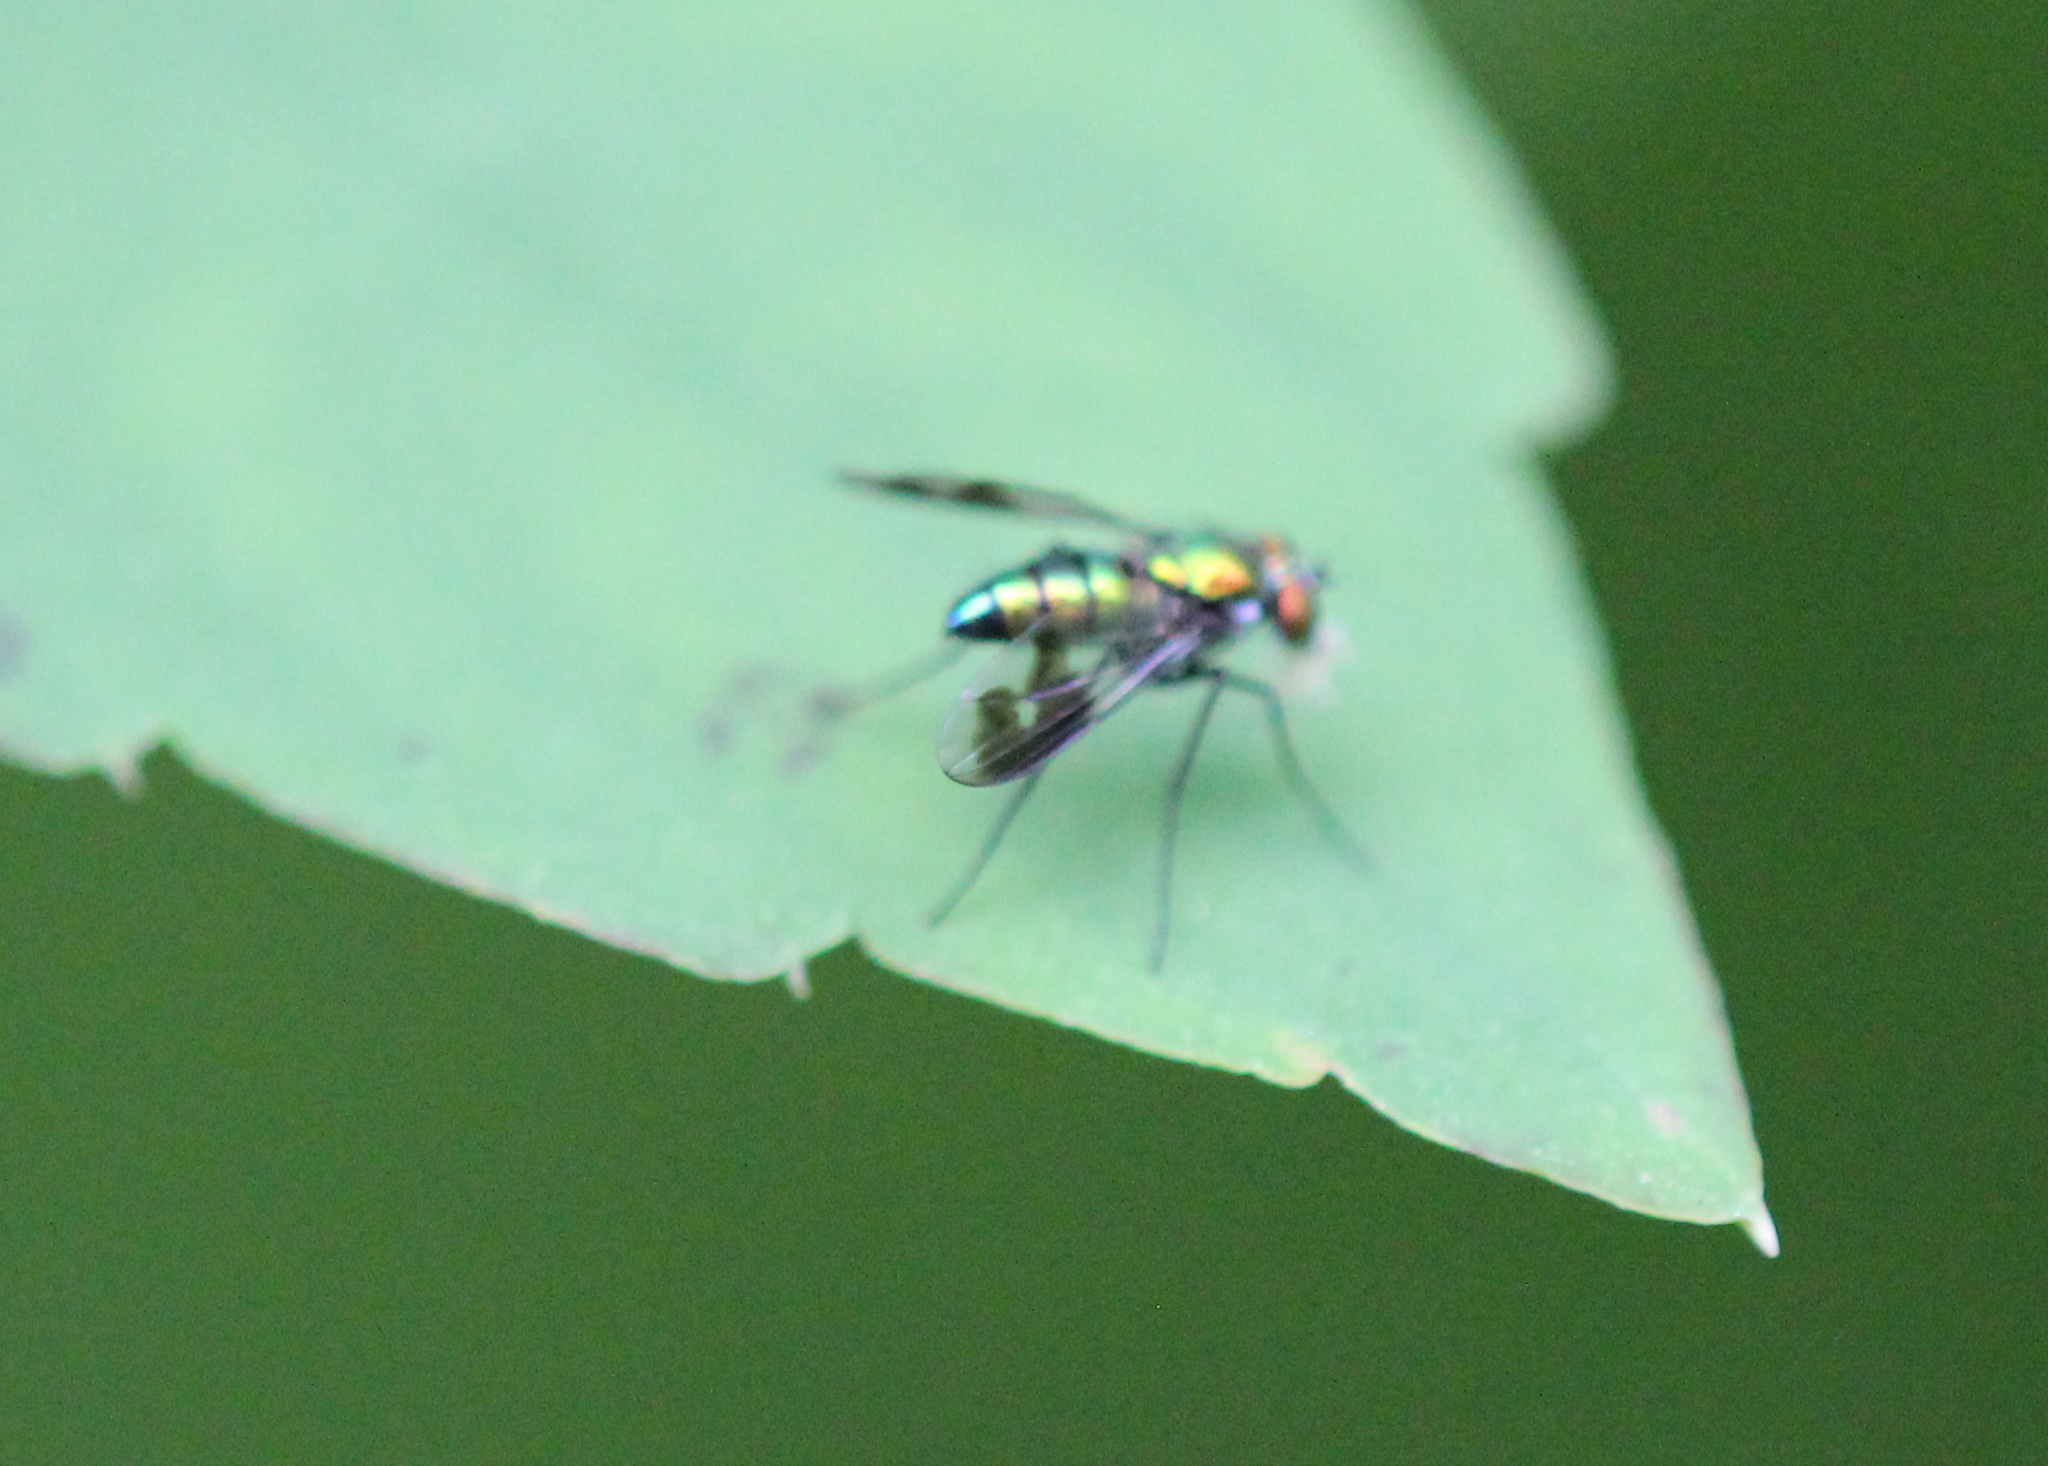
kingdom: Animalia
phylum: Arthropoda
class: Insecta
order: Diptera
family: Dolichopodidae
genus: Condylostylus
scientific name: Condylostylus patibulatus
